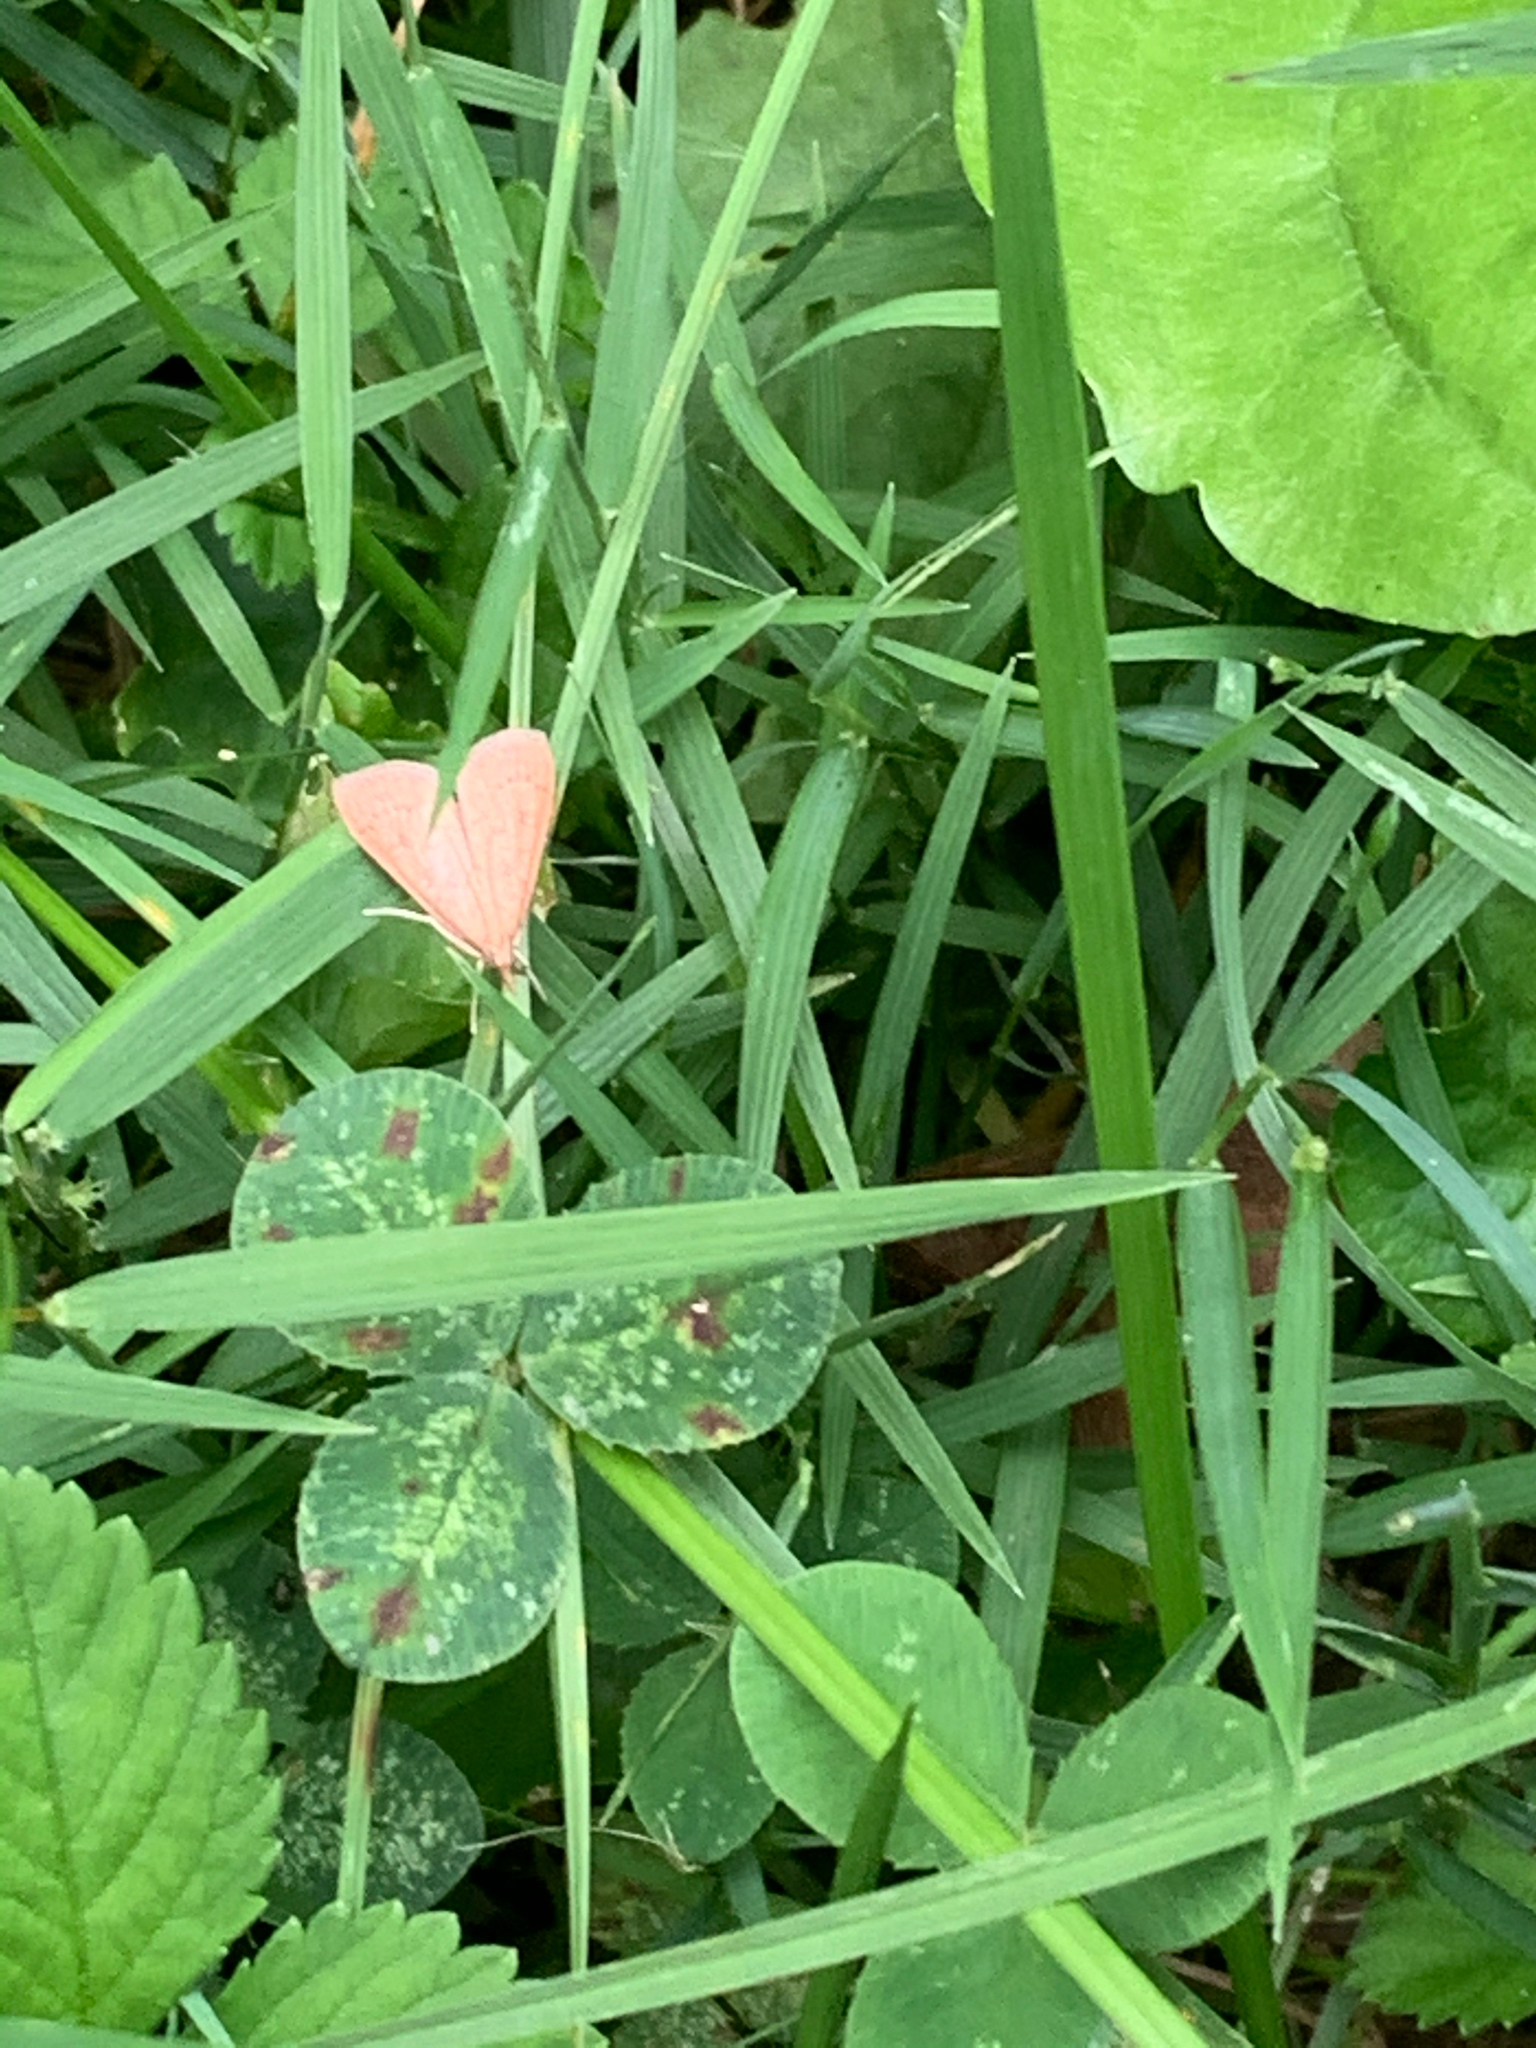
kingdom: Animalia
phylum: Arthropoda
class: Insecta
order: Lepidoptera
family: Crambidae
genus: Pyrausta
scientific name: Pyrausta inornatalis
